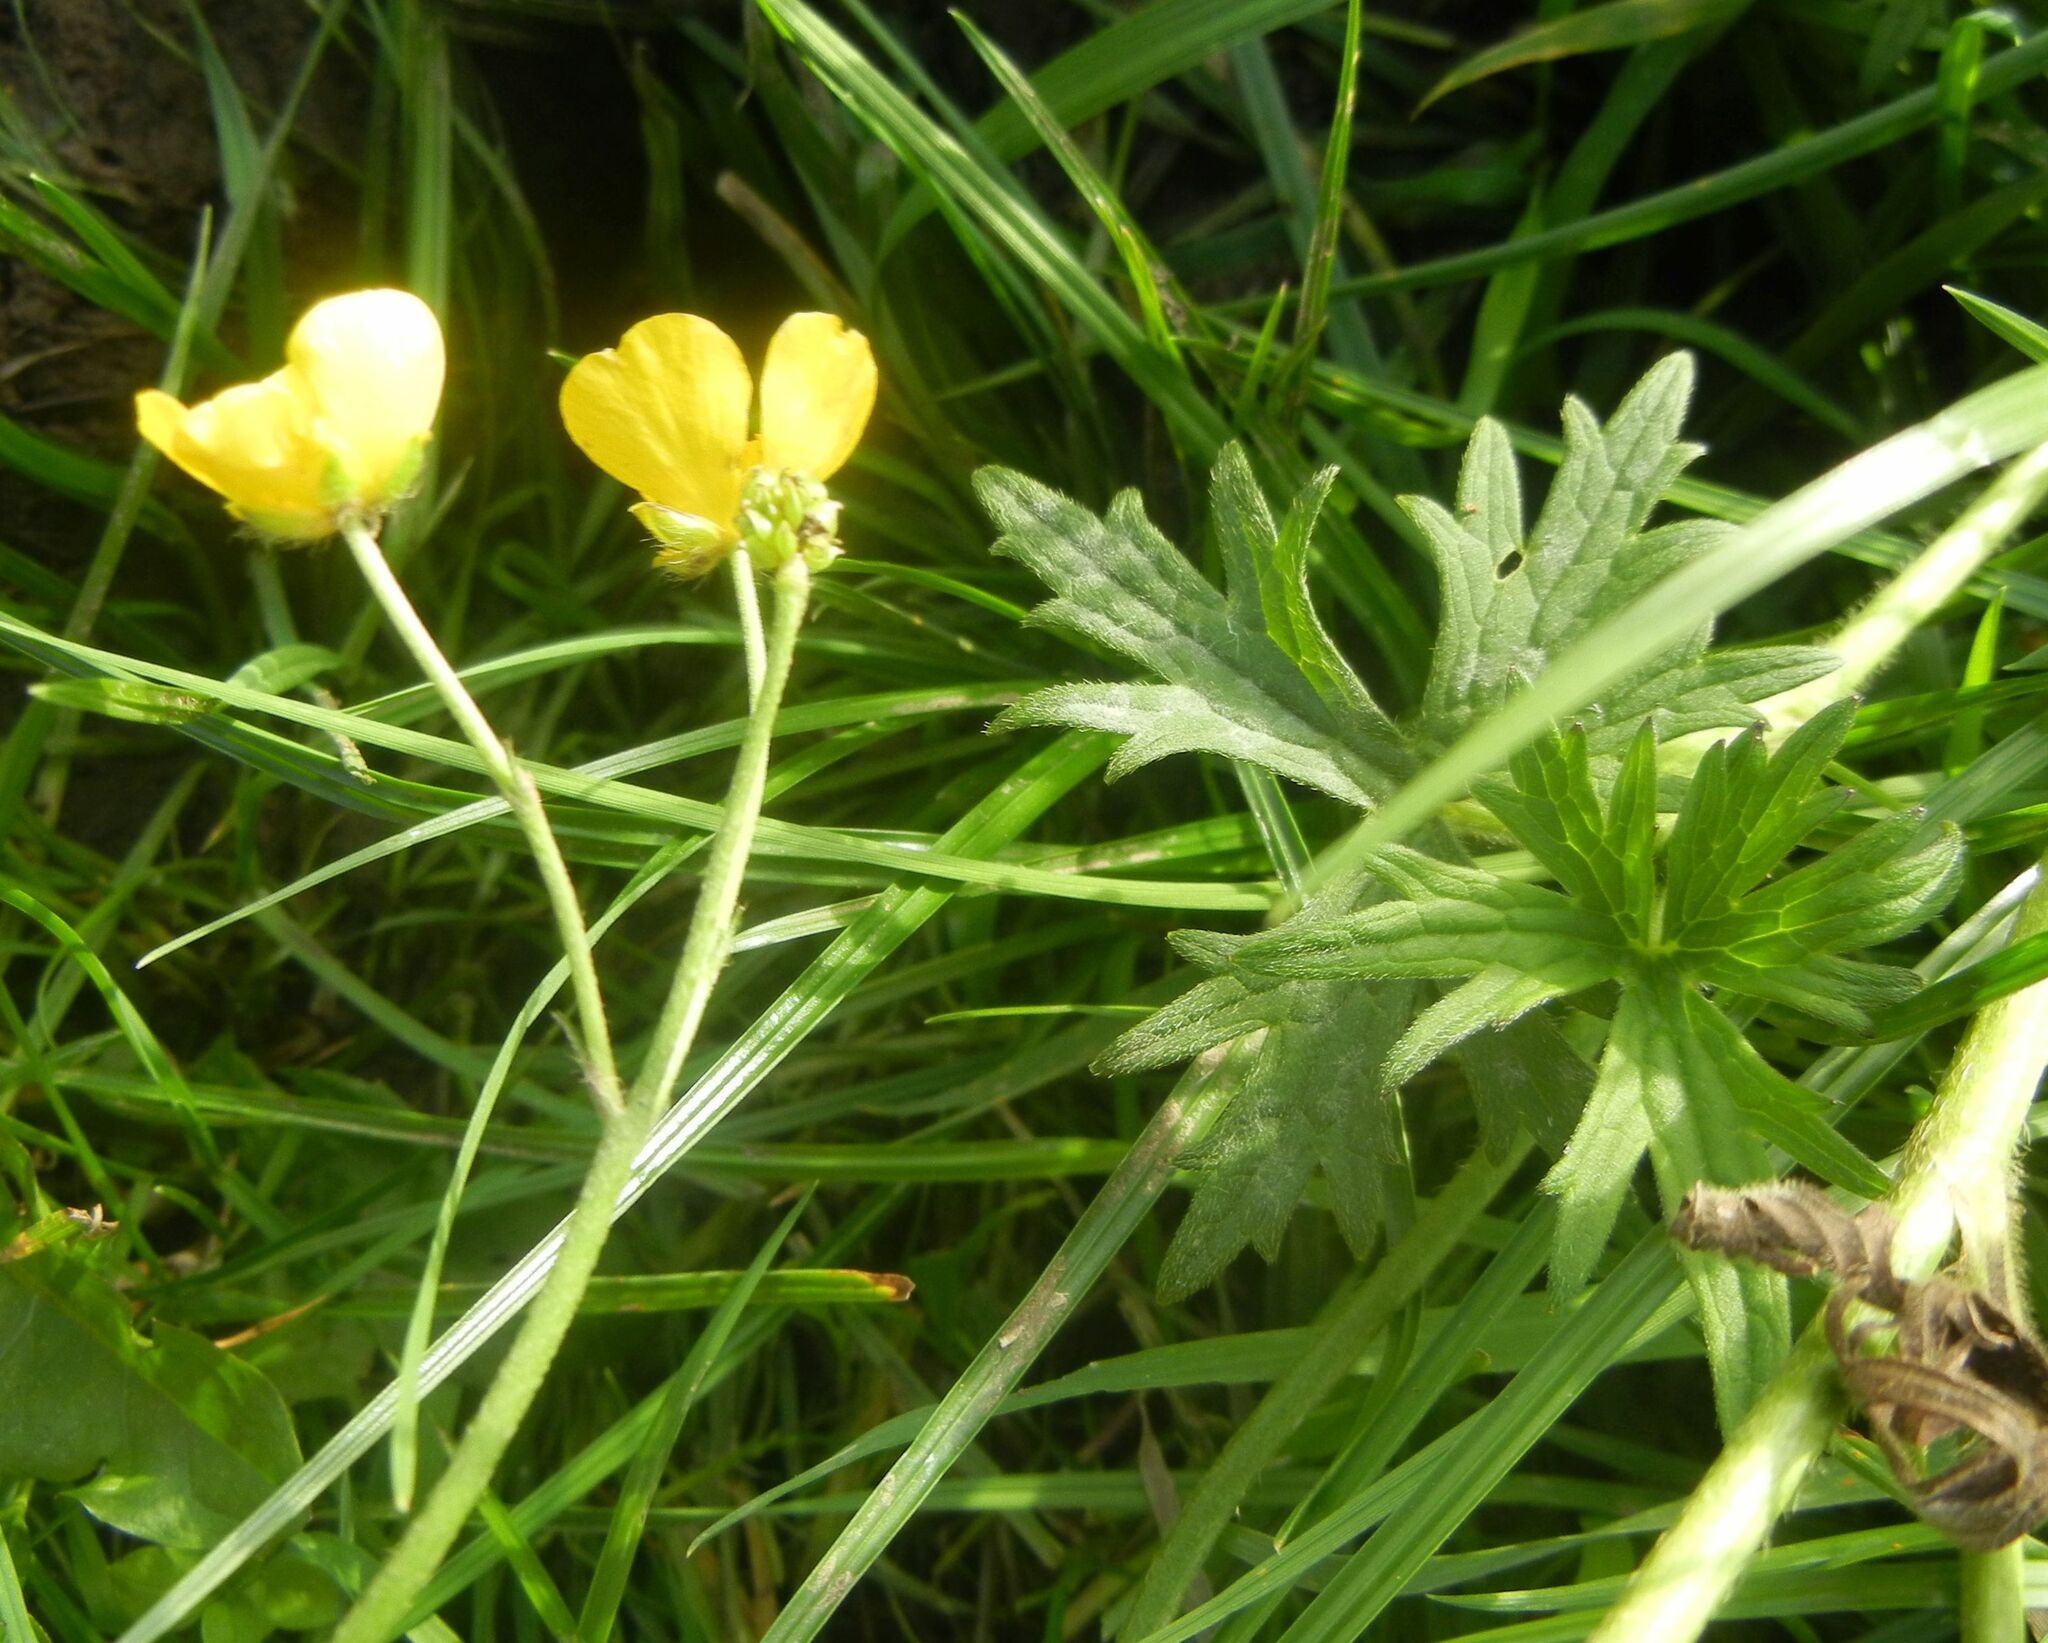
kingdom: Plantae
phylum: Tracheophyta
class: Magnoliopsida
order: Ranunculales
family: Ranunculaceae
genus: Ranunculus
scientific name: Ranunculus acris
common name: Meadow buttercup
